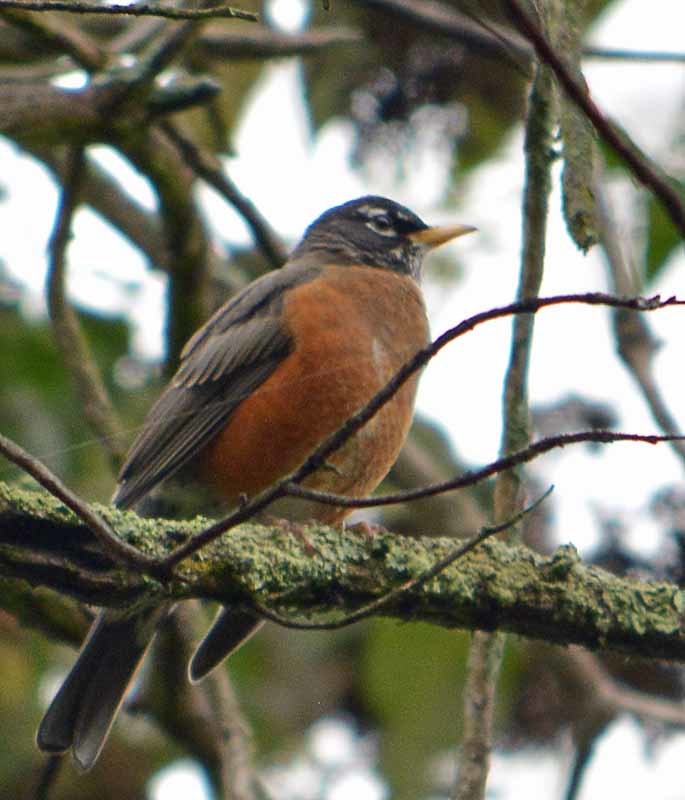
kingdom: Animalia
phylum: Chordata
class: Aves
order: Passeriformes
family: Turdidae
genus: Turdus
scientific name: Turdus migratorius
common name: American robin
